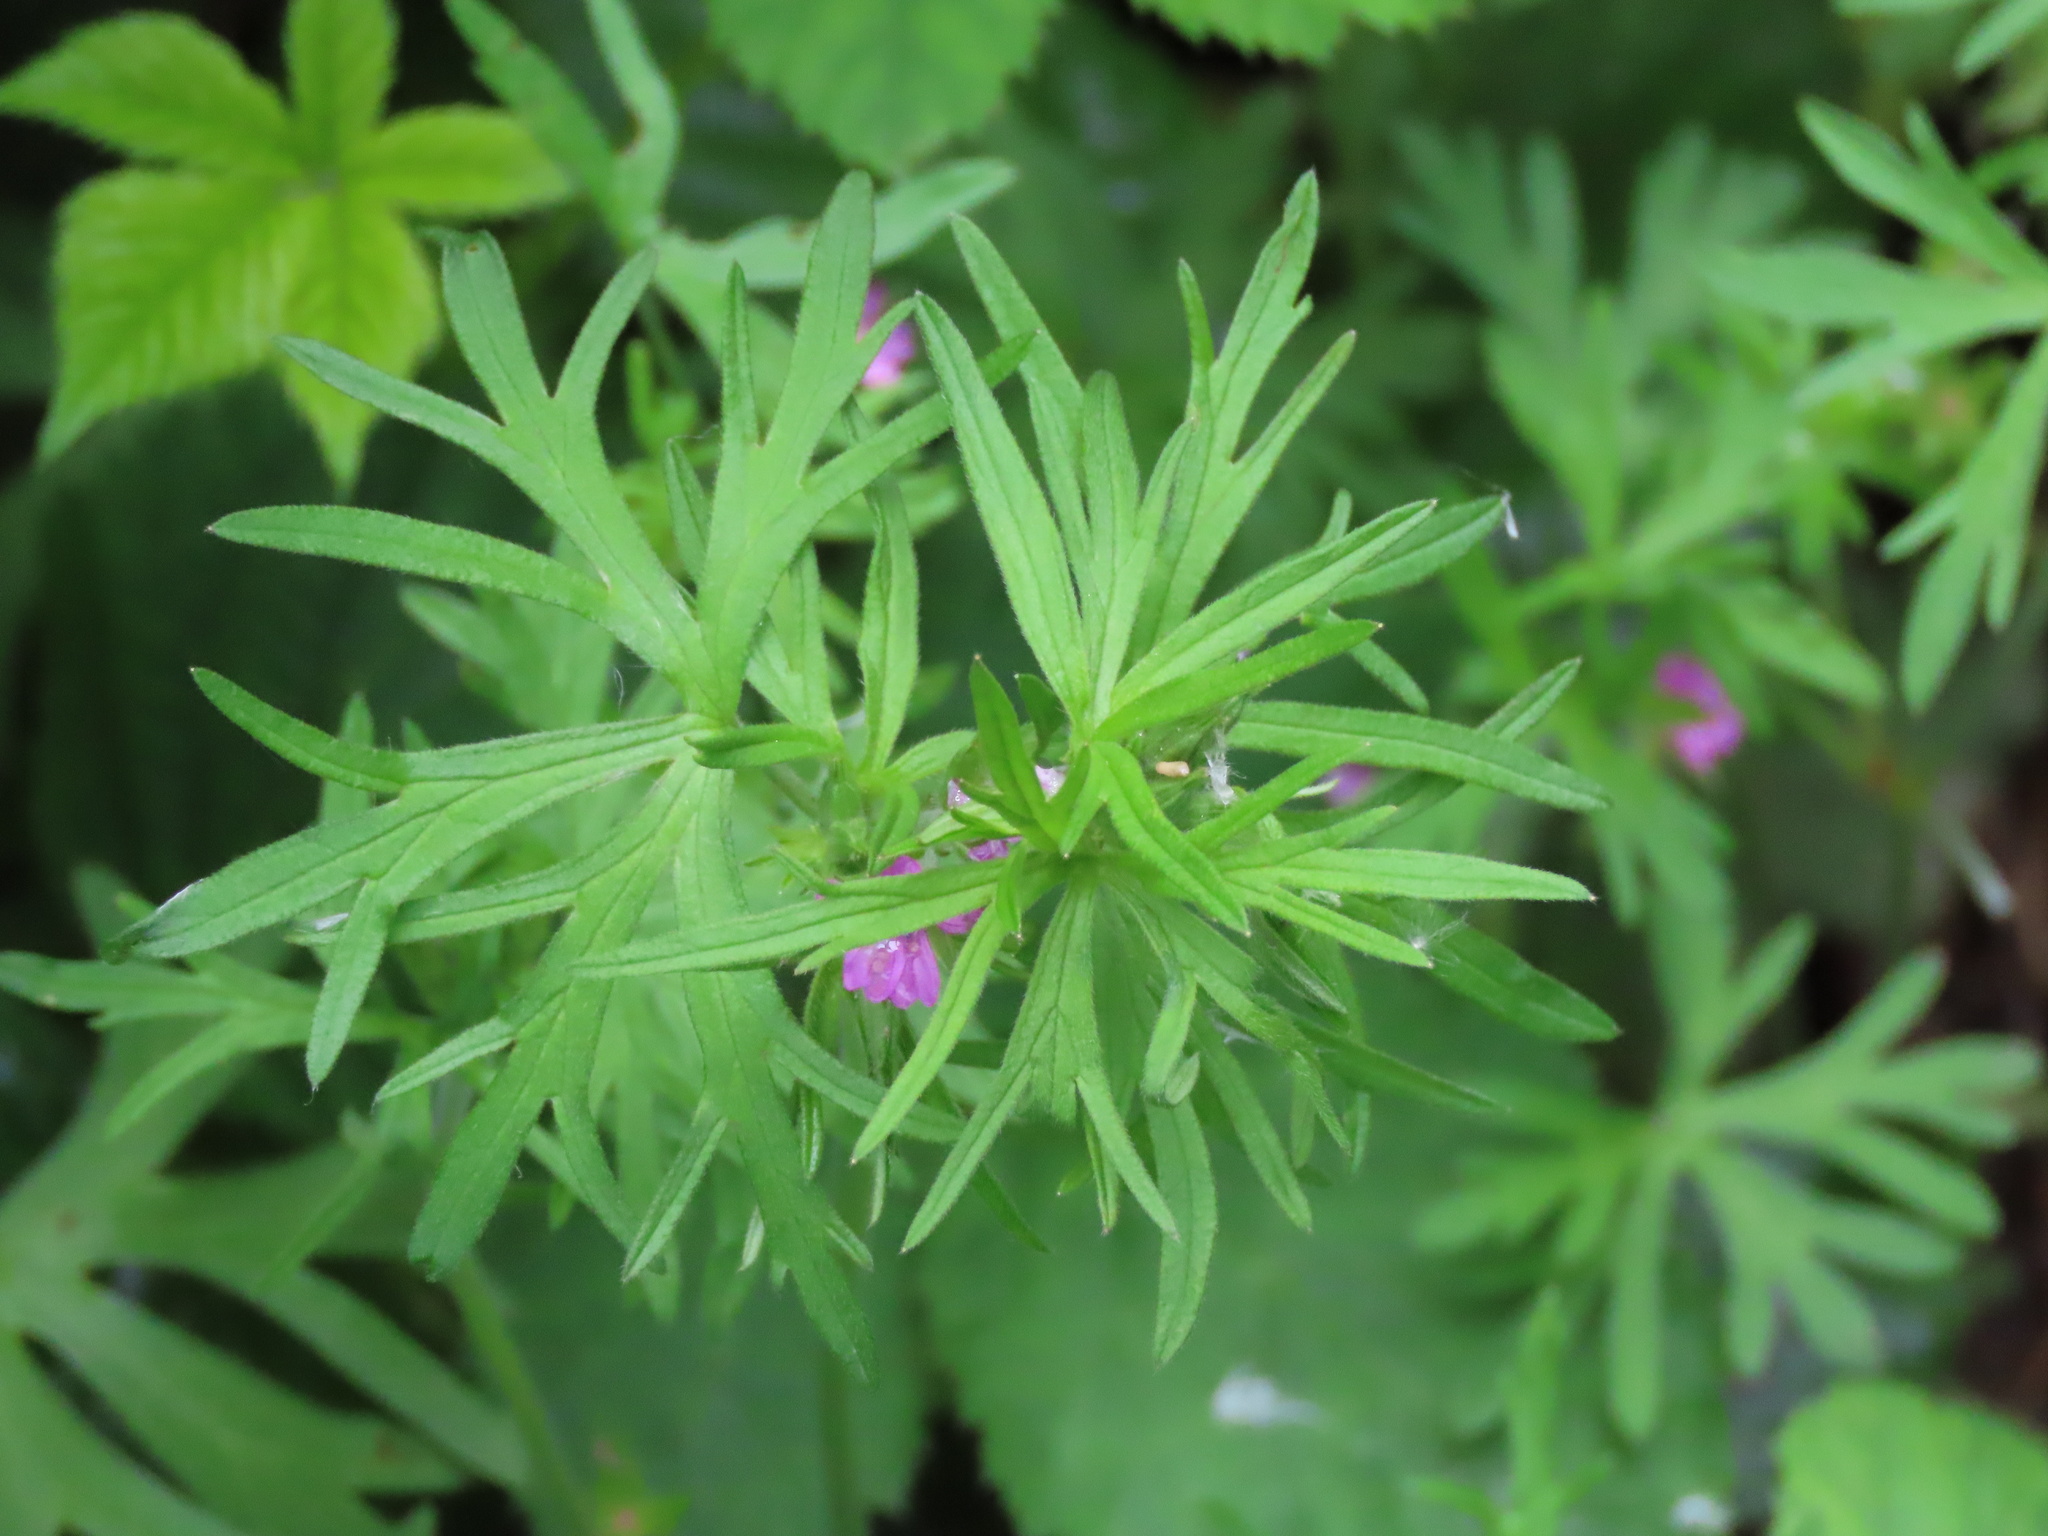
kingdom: Plantae
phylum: Tracheophyta
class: Magnoliopsida
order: Geraniales
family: Geraniaceae
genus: Geranium
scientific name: Geranium dissectum
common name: Cut-leaved crane's-bill
